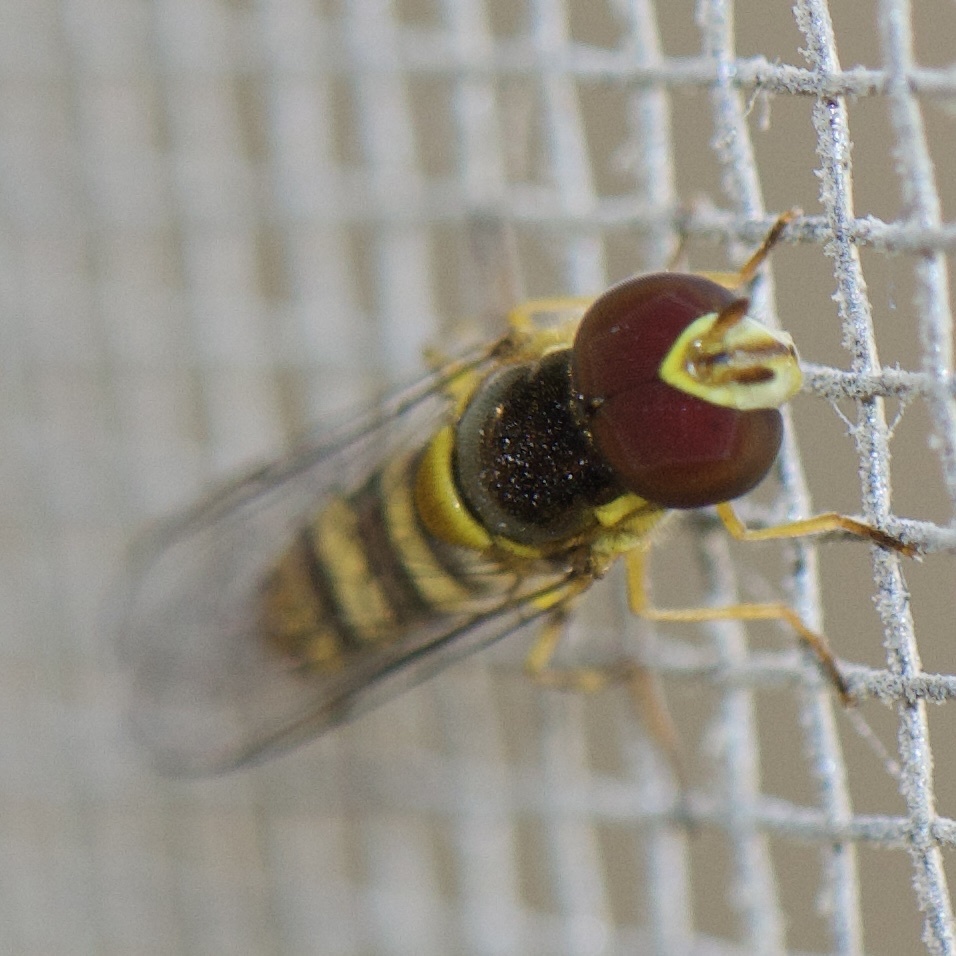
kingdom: Animalia
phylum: Arthropoda
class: Insecta
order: Diptera
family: Syrphidae
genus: Allograpta
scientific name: Allograpta obliqua
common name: Common oblique syrphid
